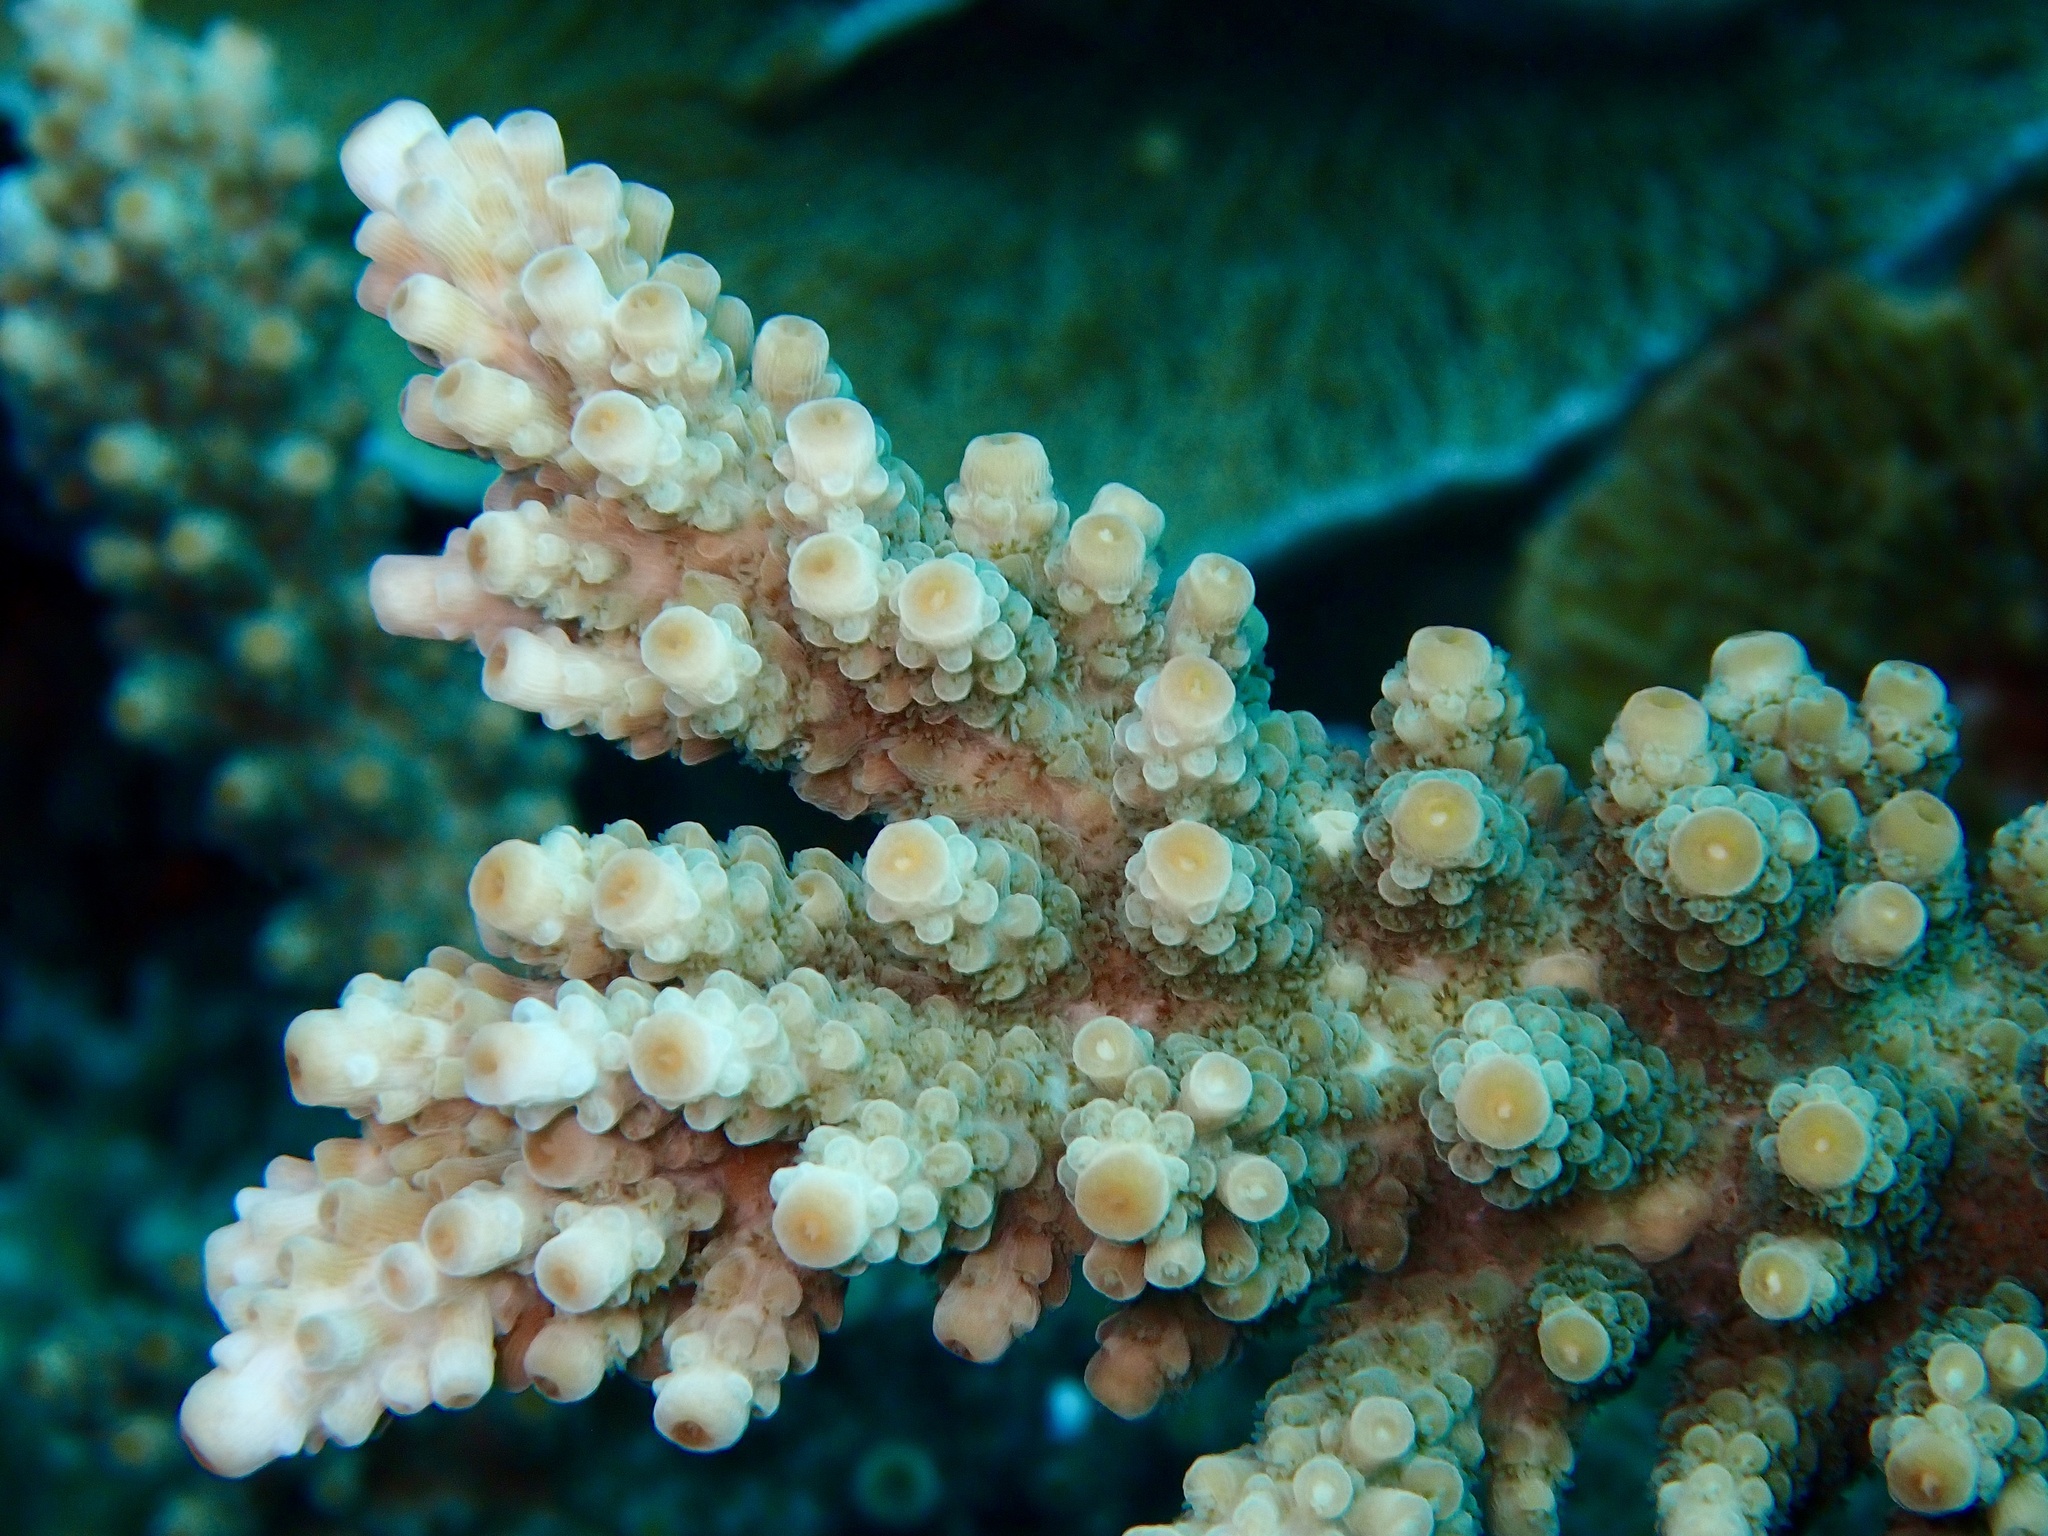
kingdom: Animalia
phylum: Cnidaria
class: Anthozoa
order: Scleractinia
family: Acroporidae
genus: Acropora
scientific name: Acropora florida
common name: Branch coral
